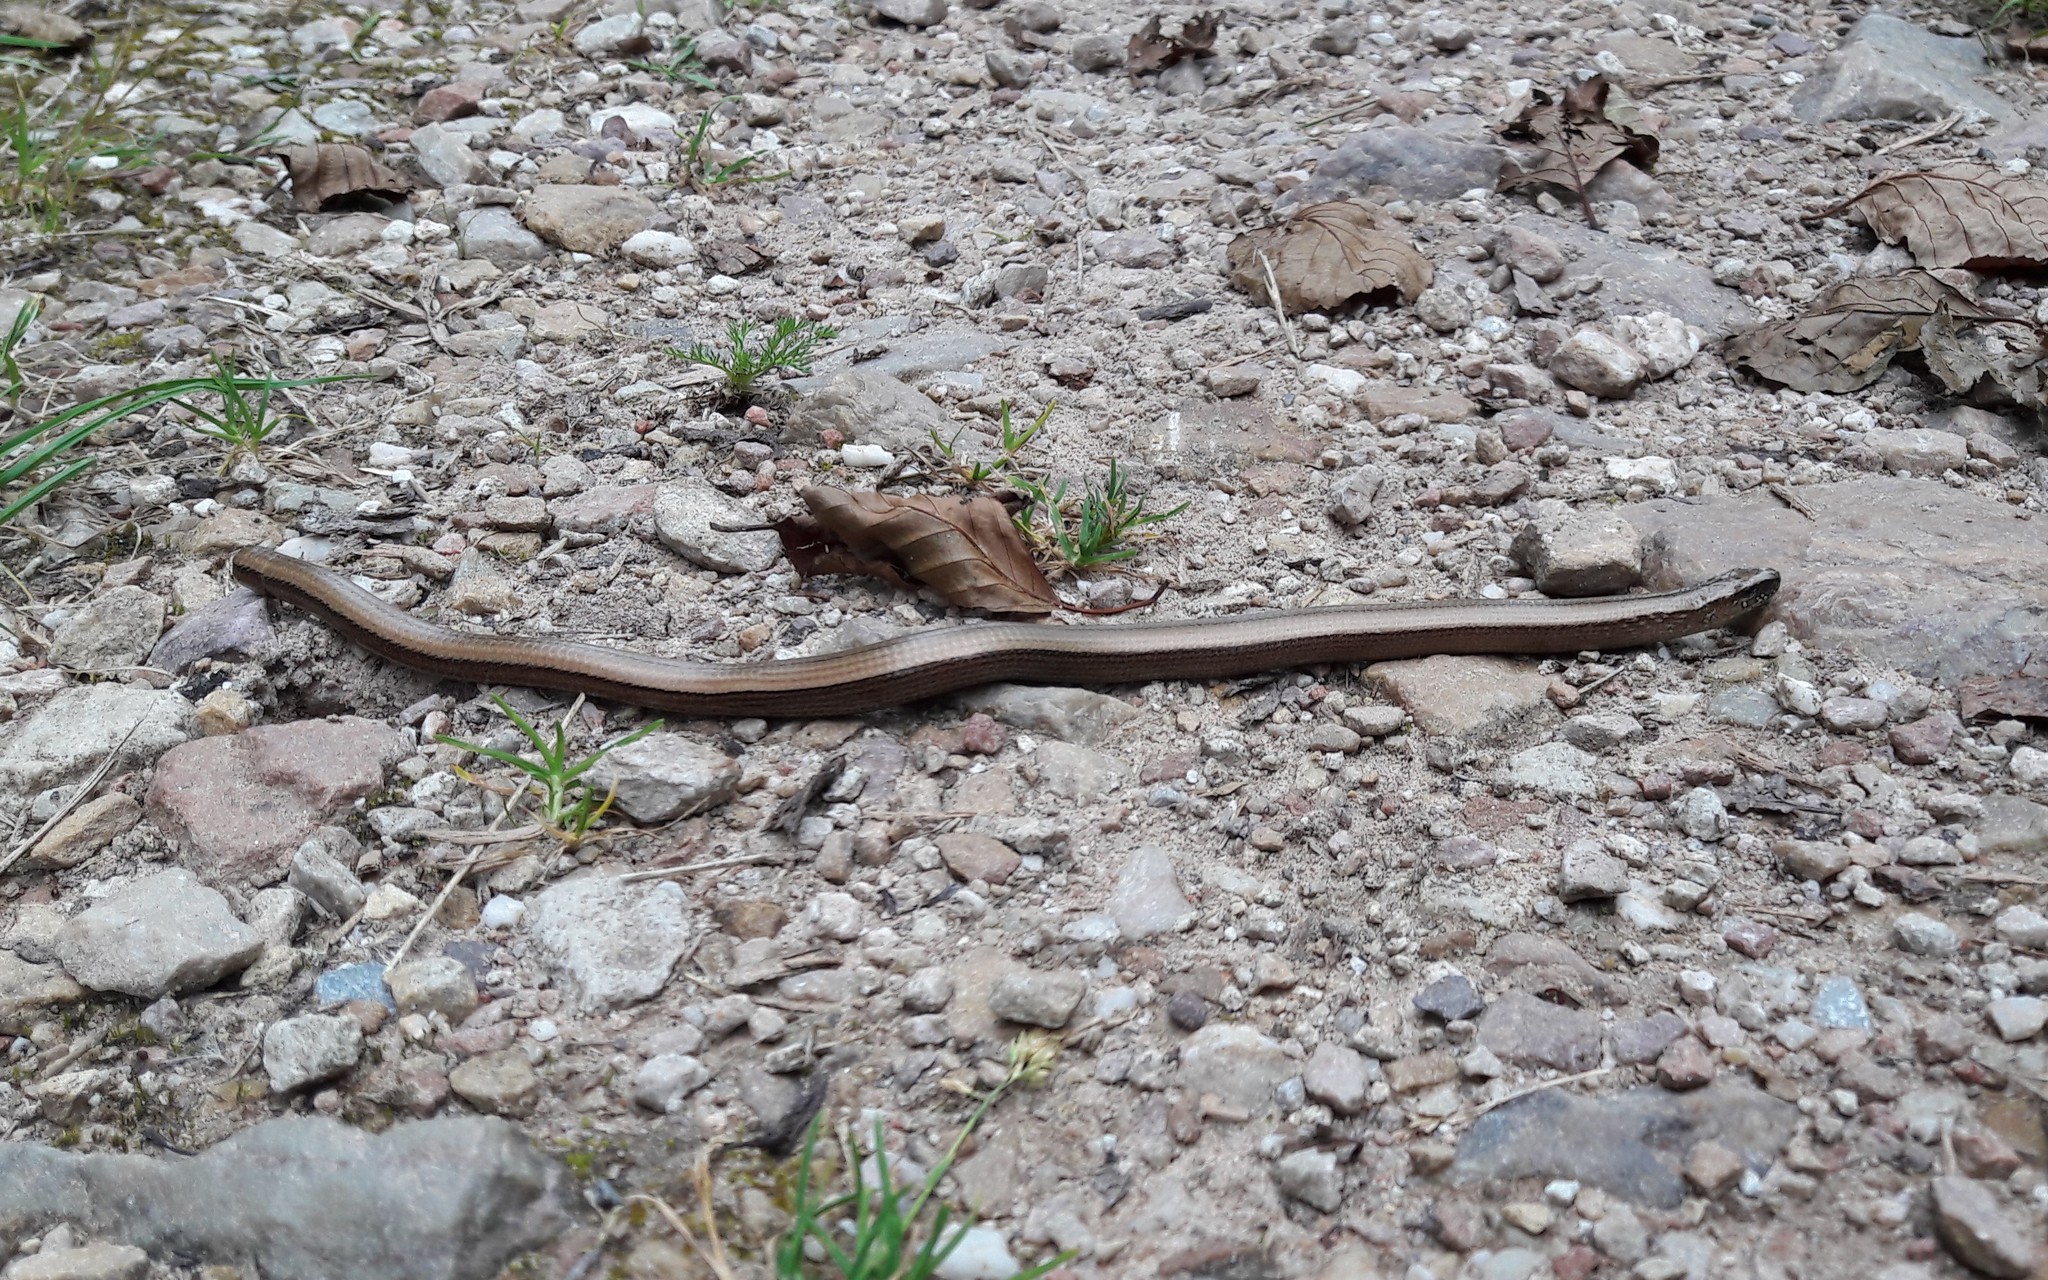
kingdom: Animalia
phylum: Chordata
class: Squamata
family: Anguidae
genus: Anguis
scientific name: Anguis fragilis
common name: Slow worm
